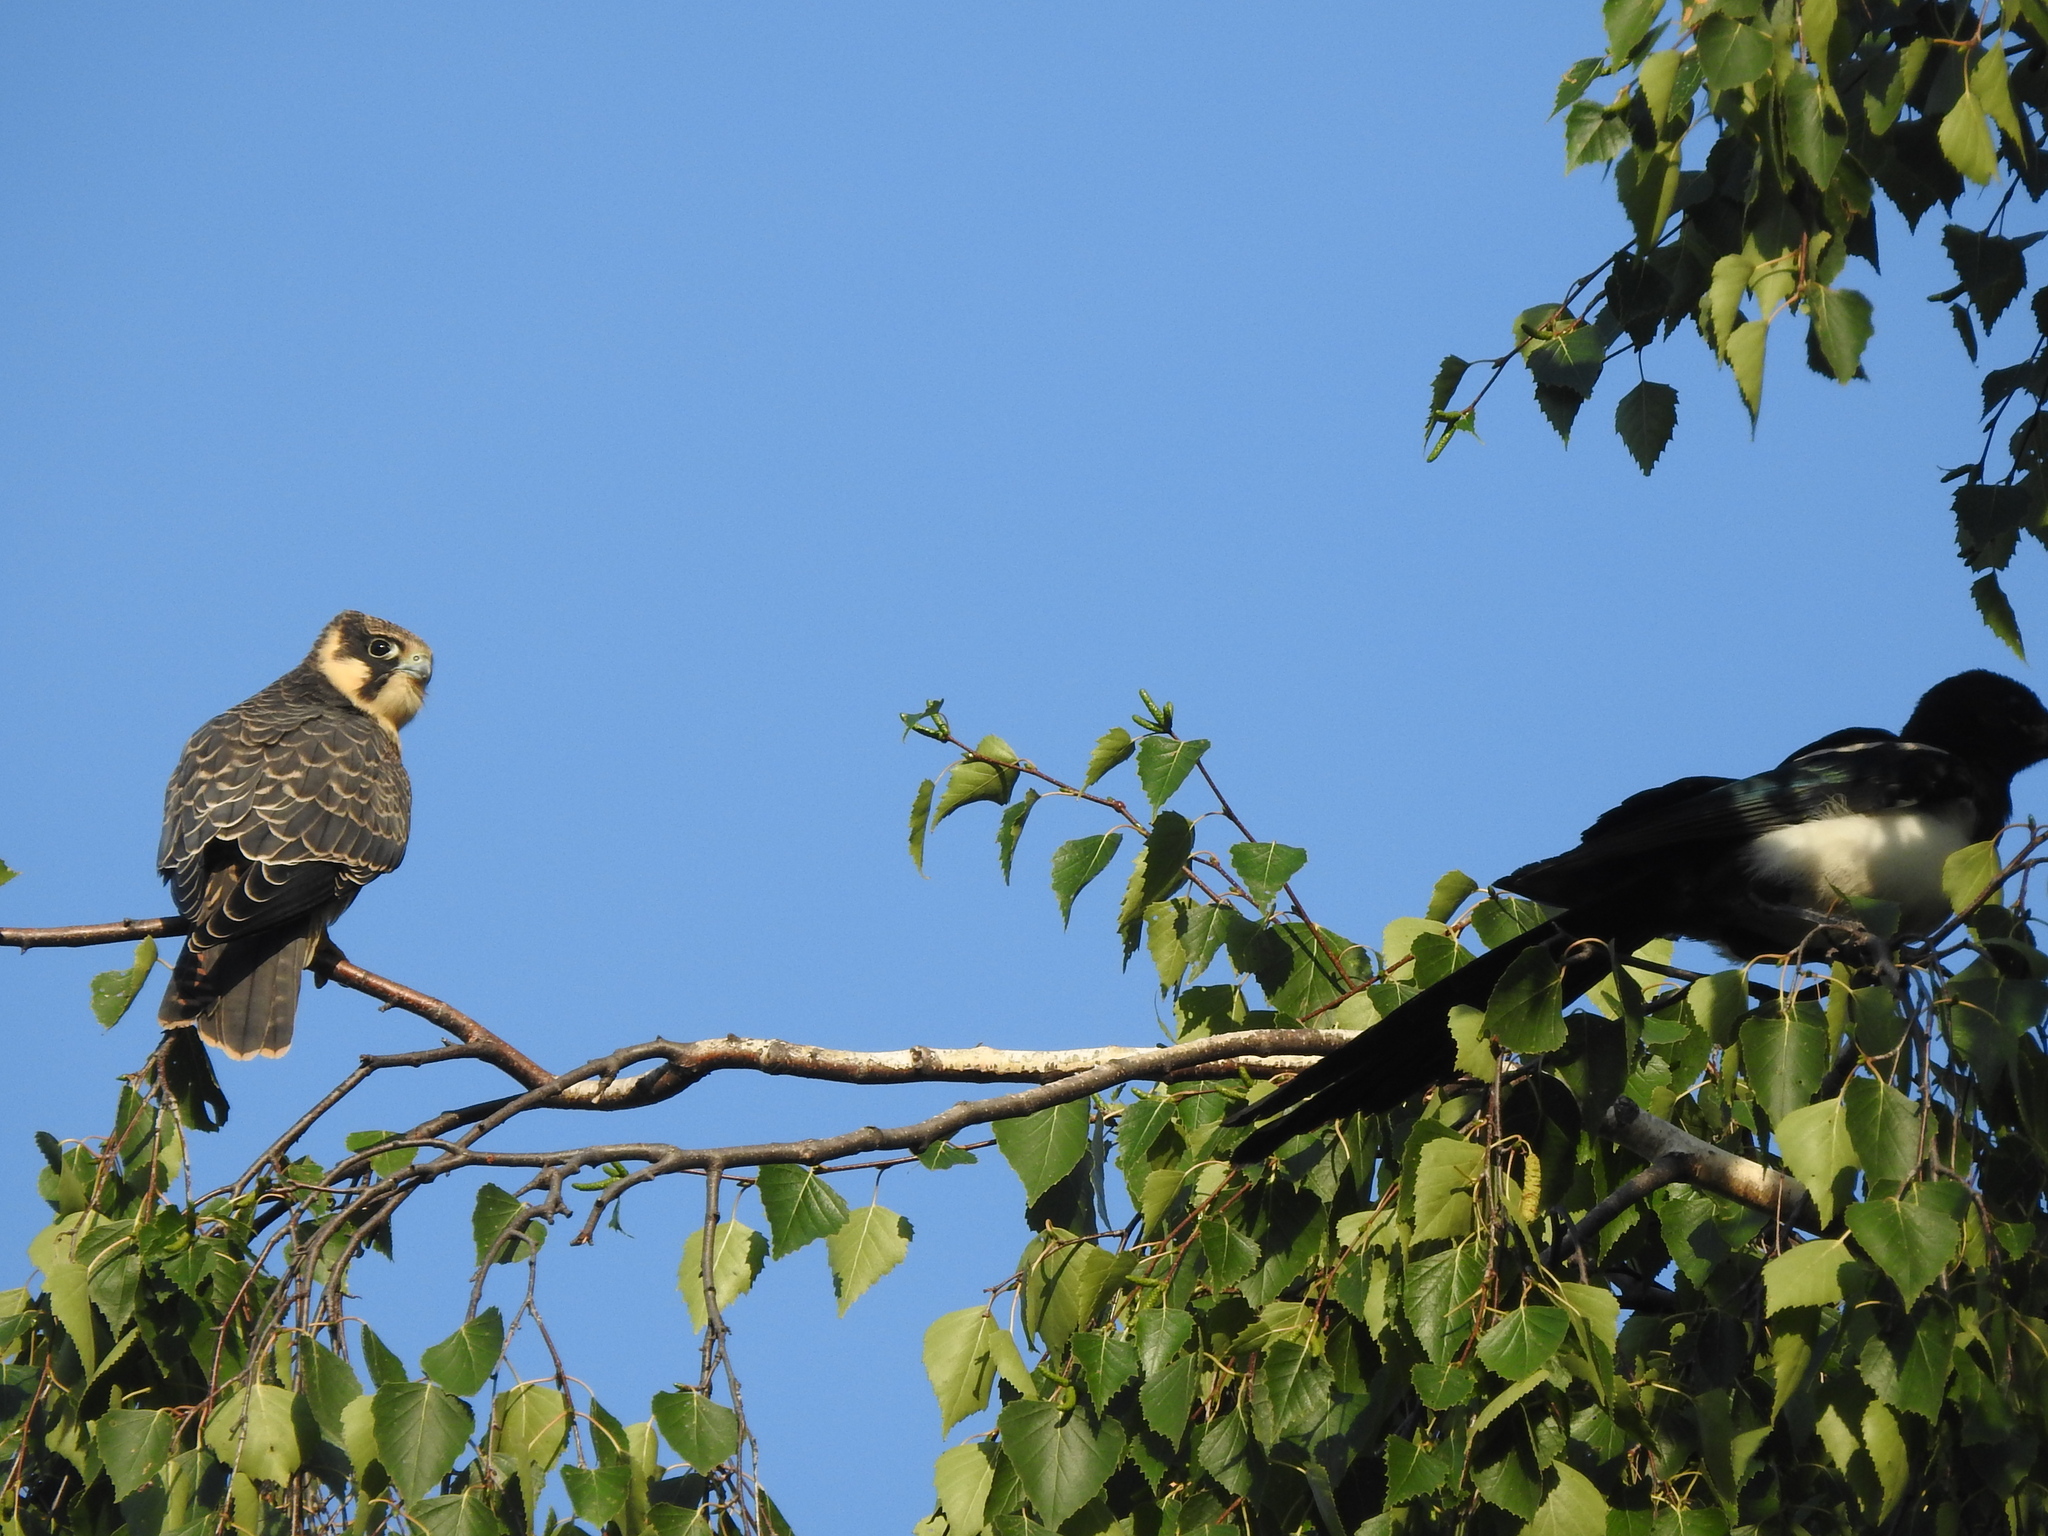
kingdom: Animalia
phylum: Chordata
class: Aves
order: Falconiformes
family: Falconidae
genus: Falco
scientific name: Falco subbuteo
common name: Eurasian hobby
